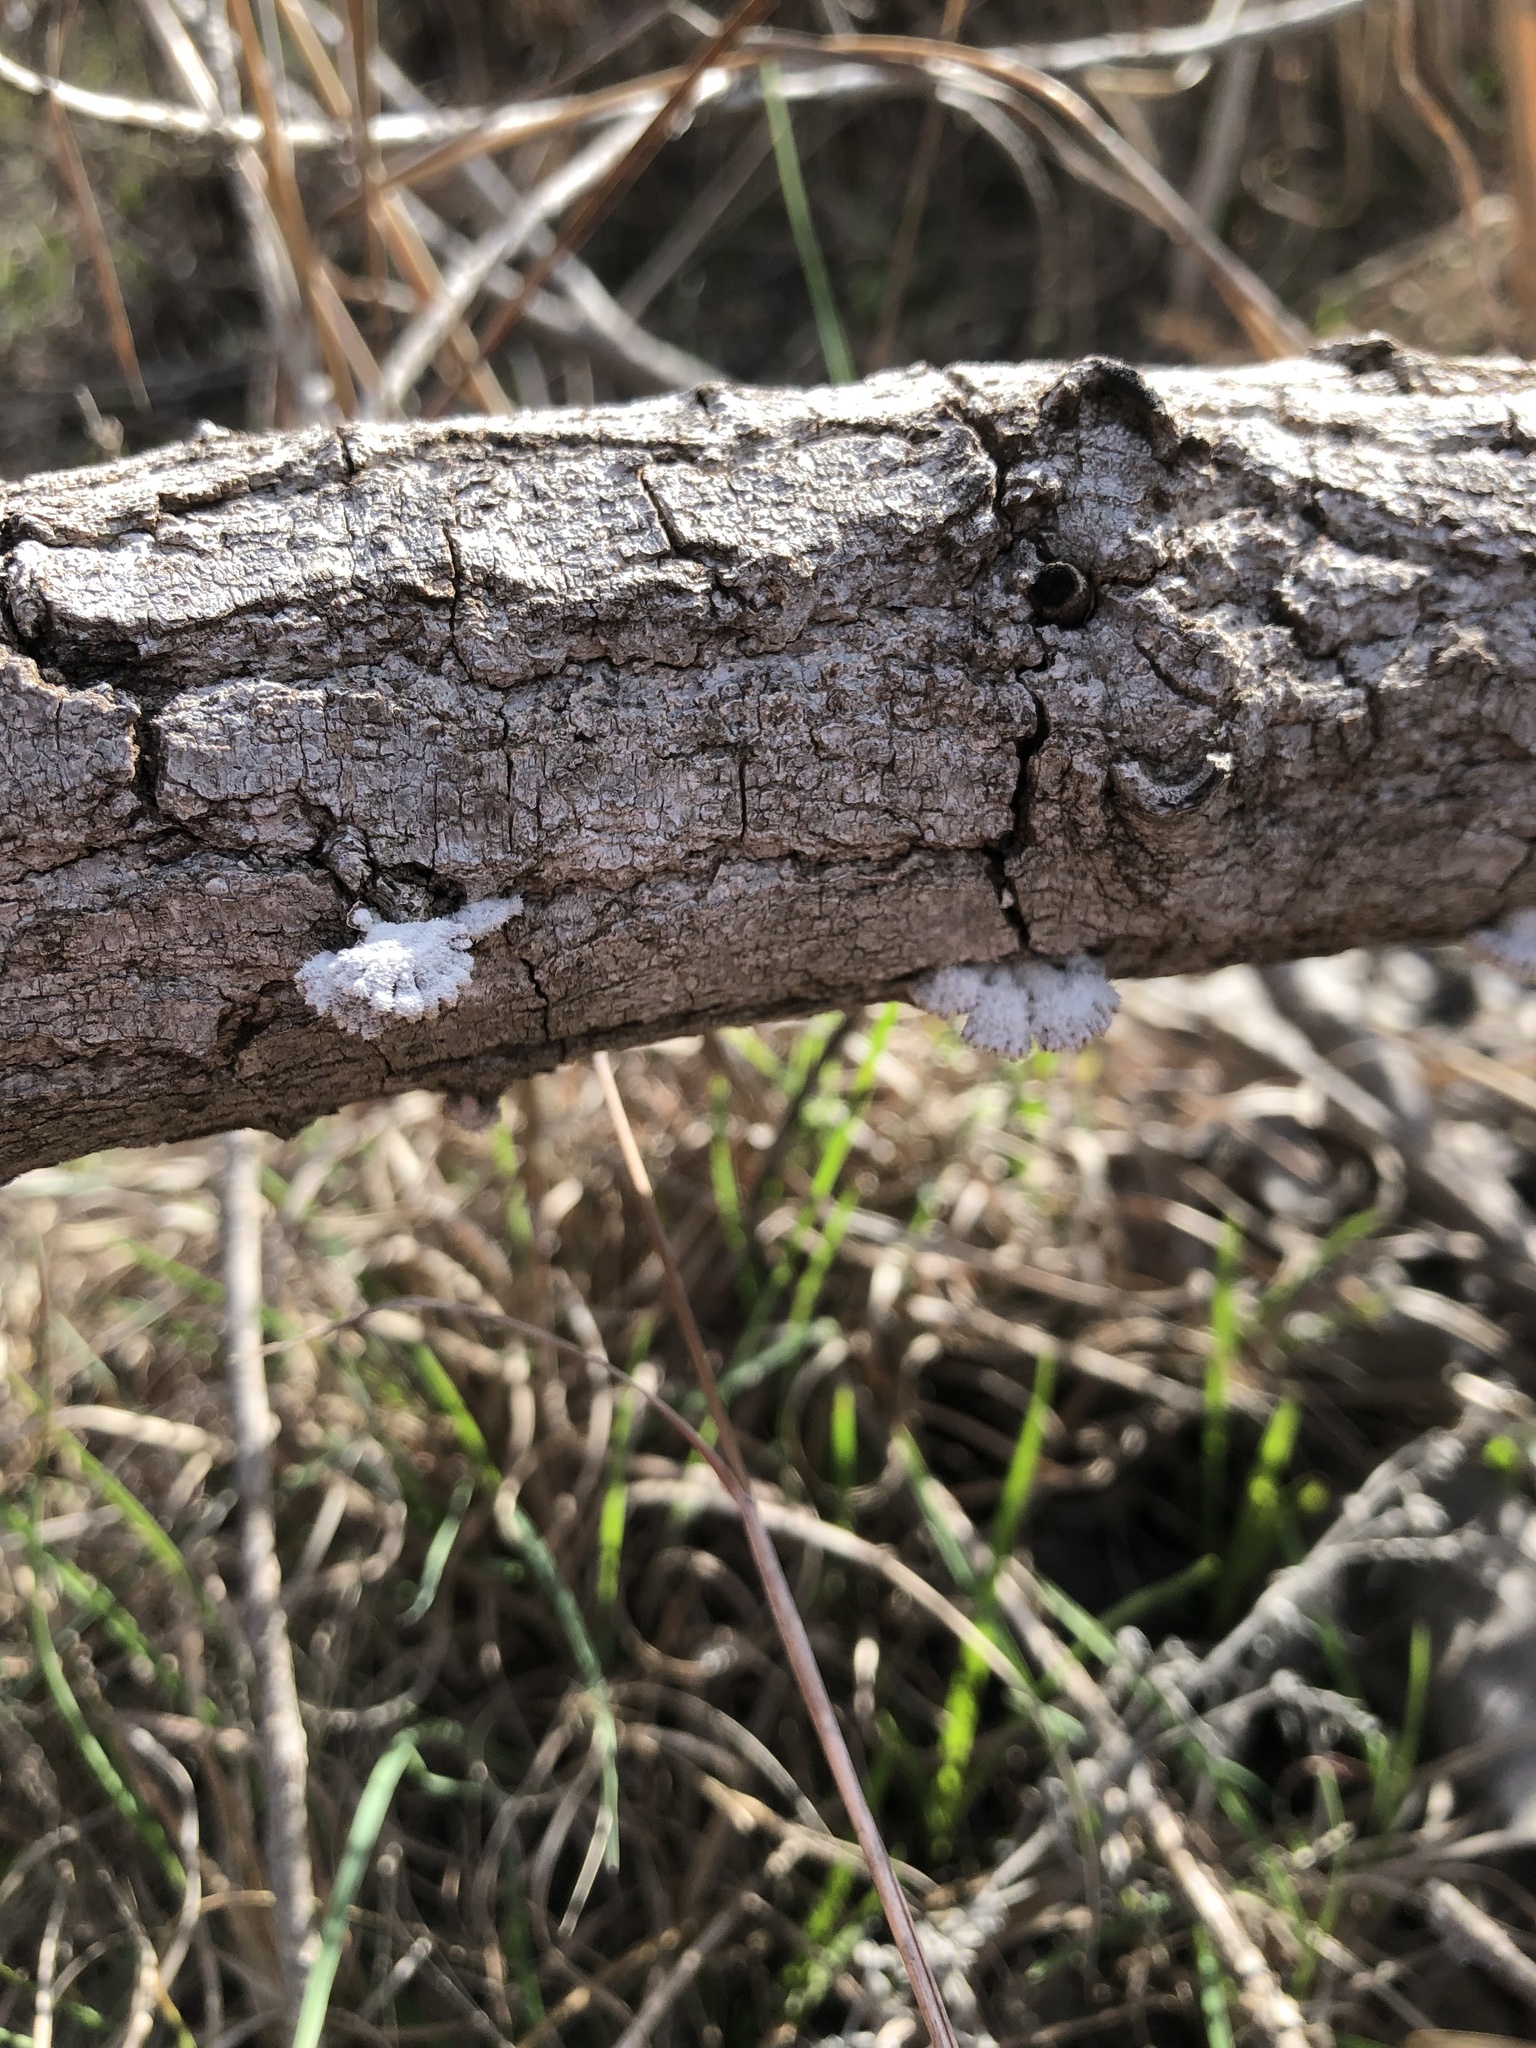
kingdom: Fungi
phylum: Basidiomycota
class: Agaricomycetes
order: Agaricales
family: Schizophyllaceae
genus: Schizophyllum
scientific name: Schizophyllum commune
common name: Common porecrust
